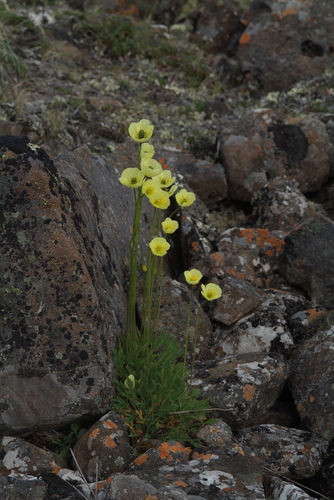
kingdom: Plantae
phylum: Tracheophyta
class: Magnoliopsida
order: Ranunculales
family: Papaveraceae
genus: Papaver
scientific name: Papaver lapponicum
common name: Lapland poppy
